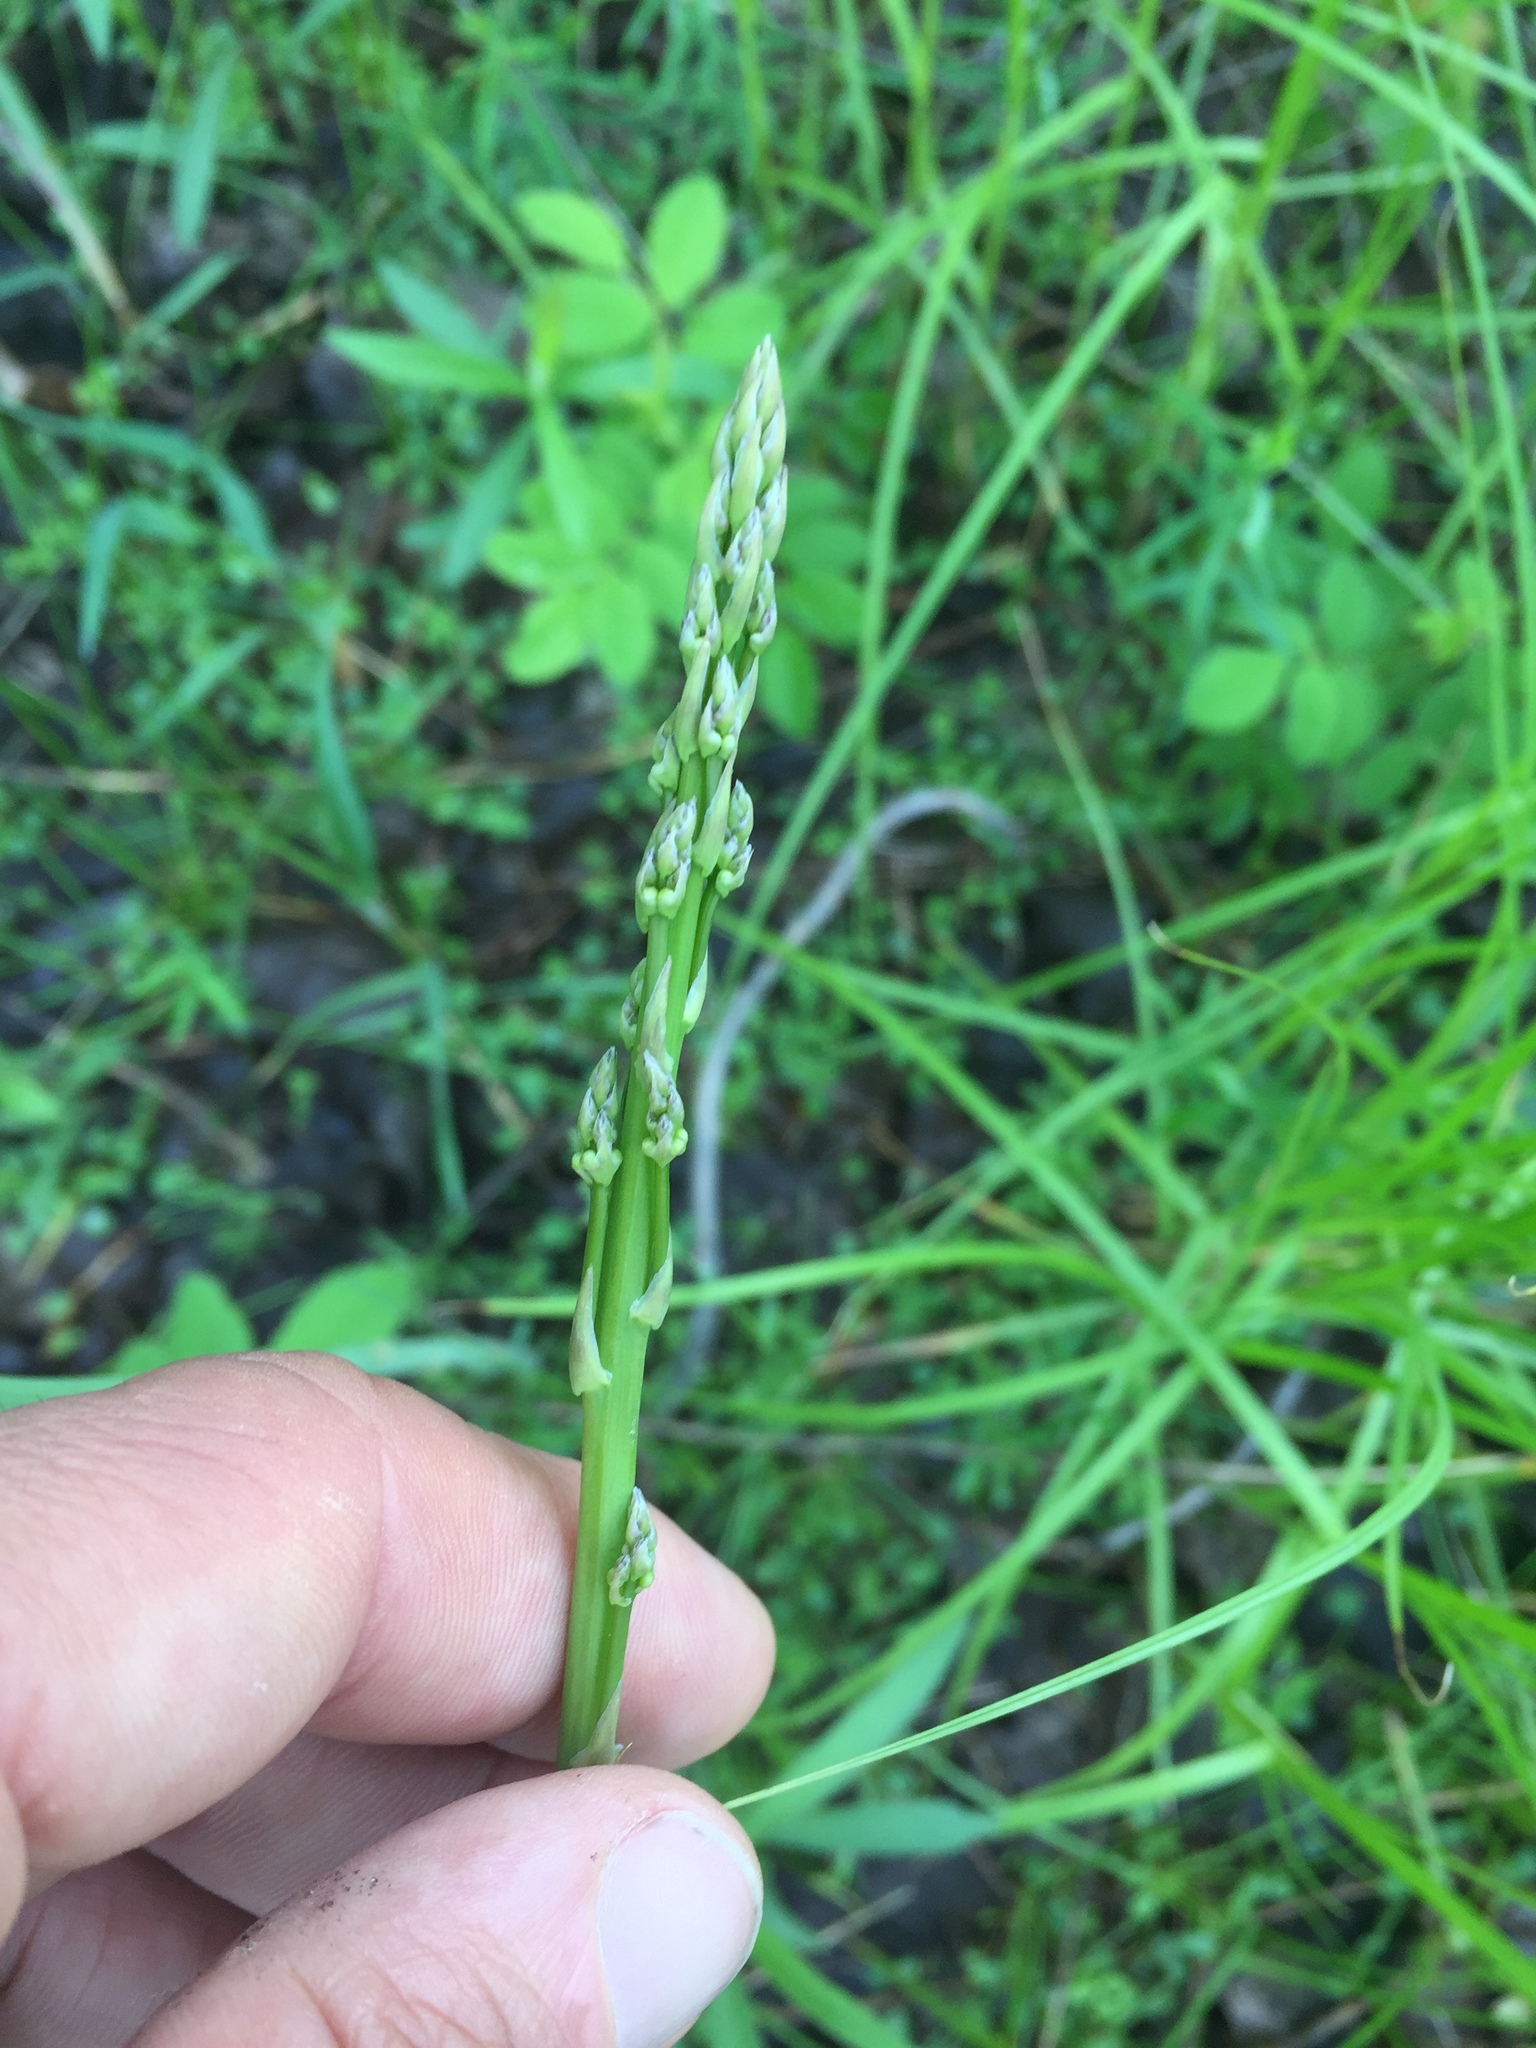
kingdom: Plantae
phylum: Tracheophyta
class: Liliopsida
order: Asparagales
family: Asparagaceae
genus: Asparagus
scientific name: Asparagus officinalis
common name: Garden asparagus
